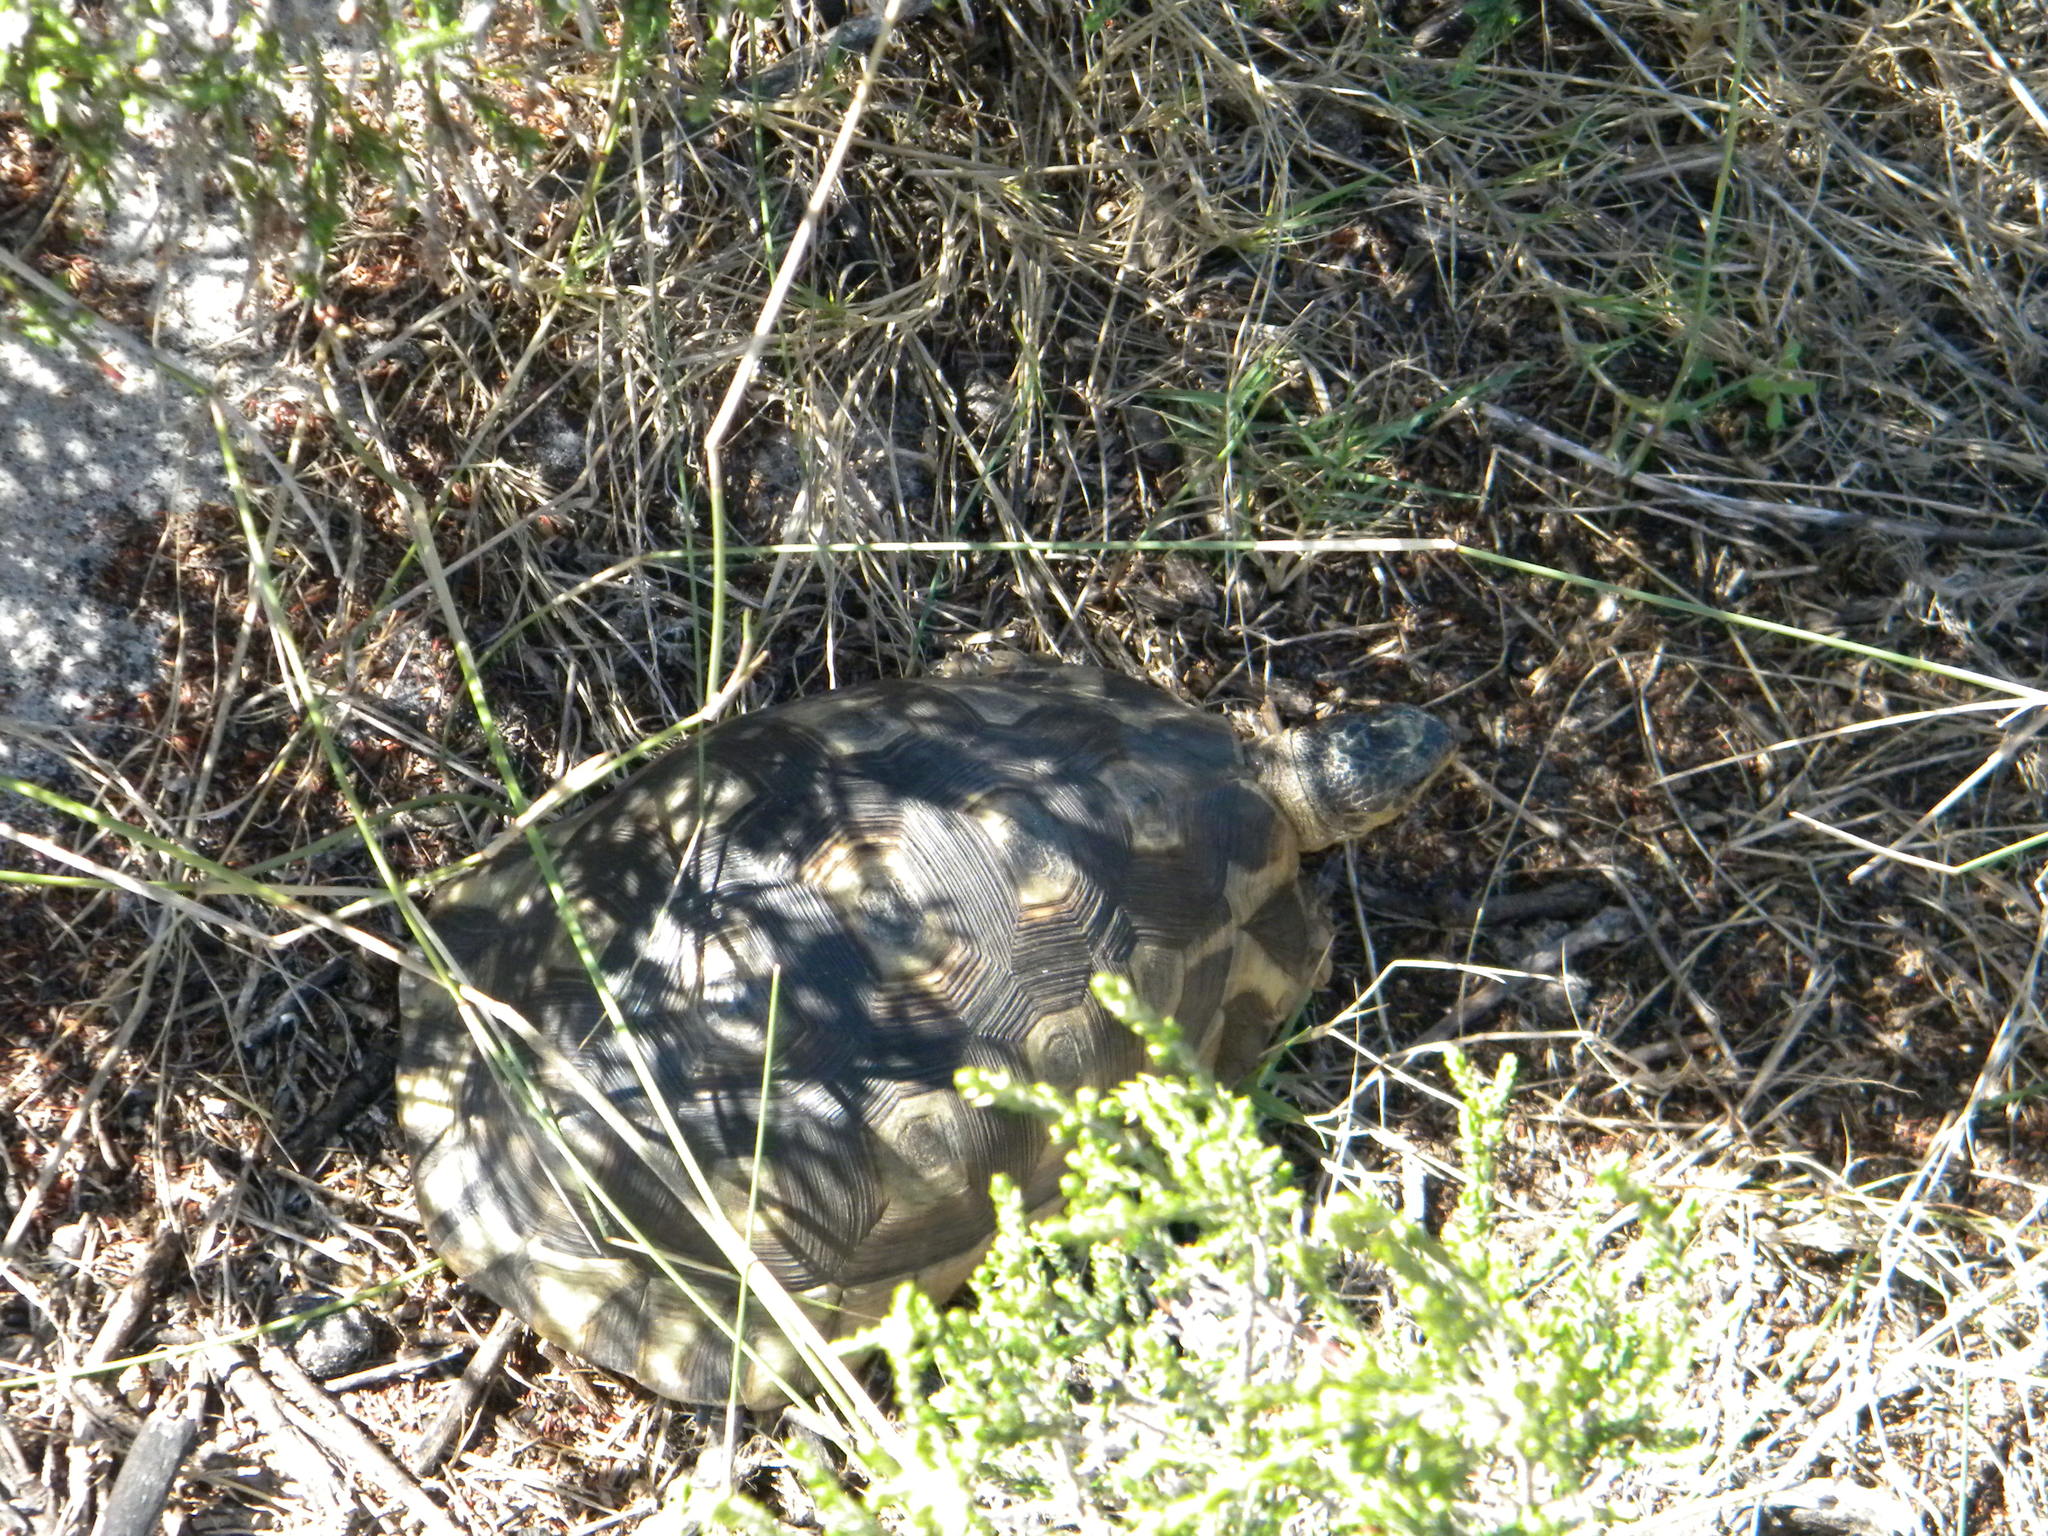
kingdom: Animalia
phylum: Chordata
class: Testudines
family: Testudinidae
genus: Chersina
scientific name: Chersina angulata
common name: South african bowsprit tortoise
